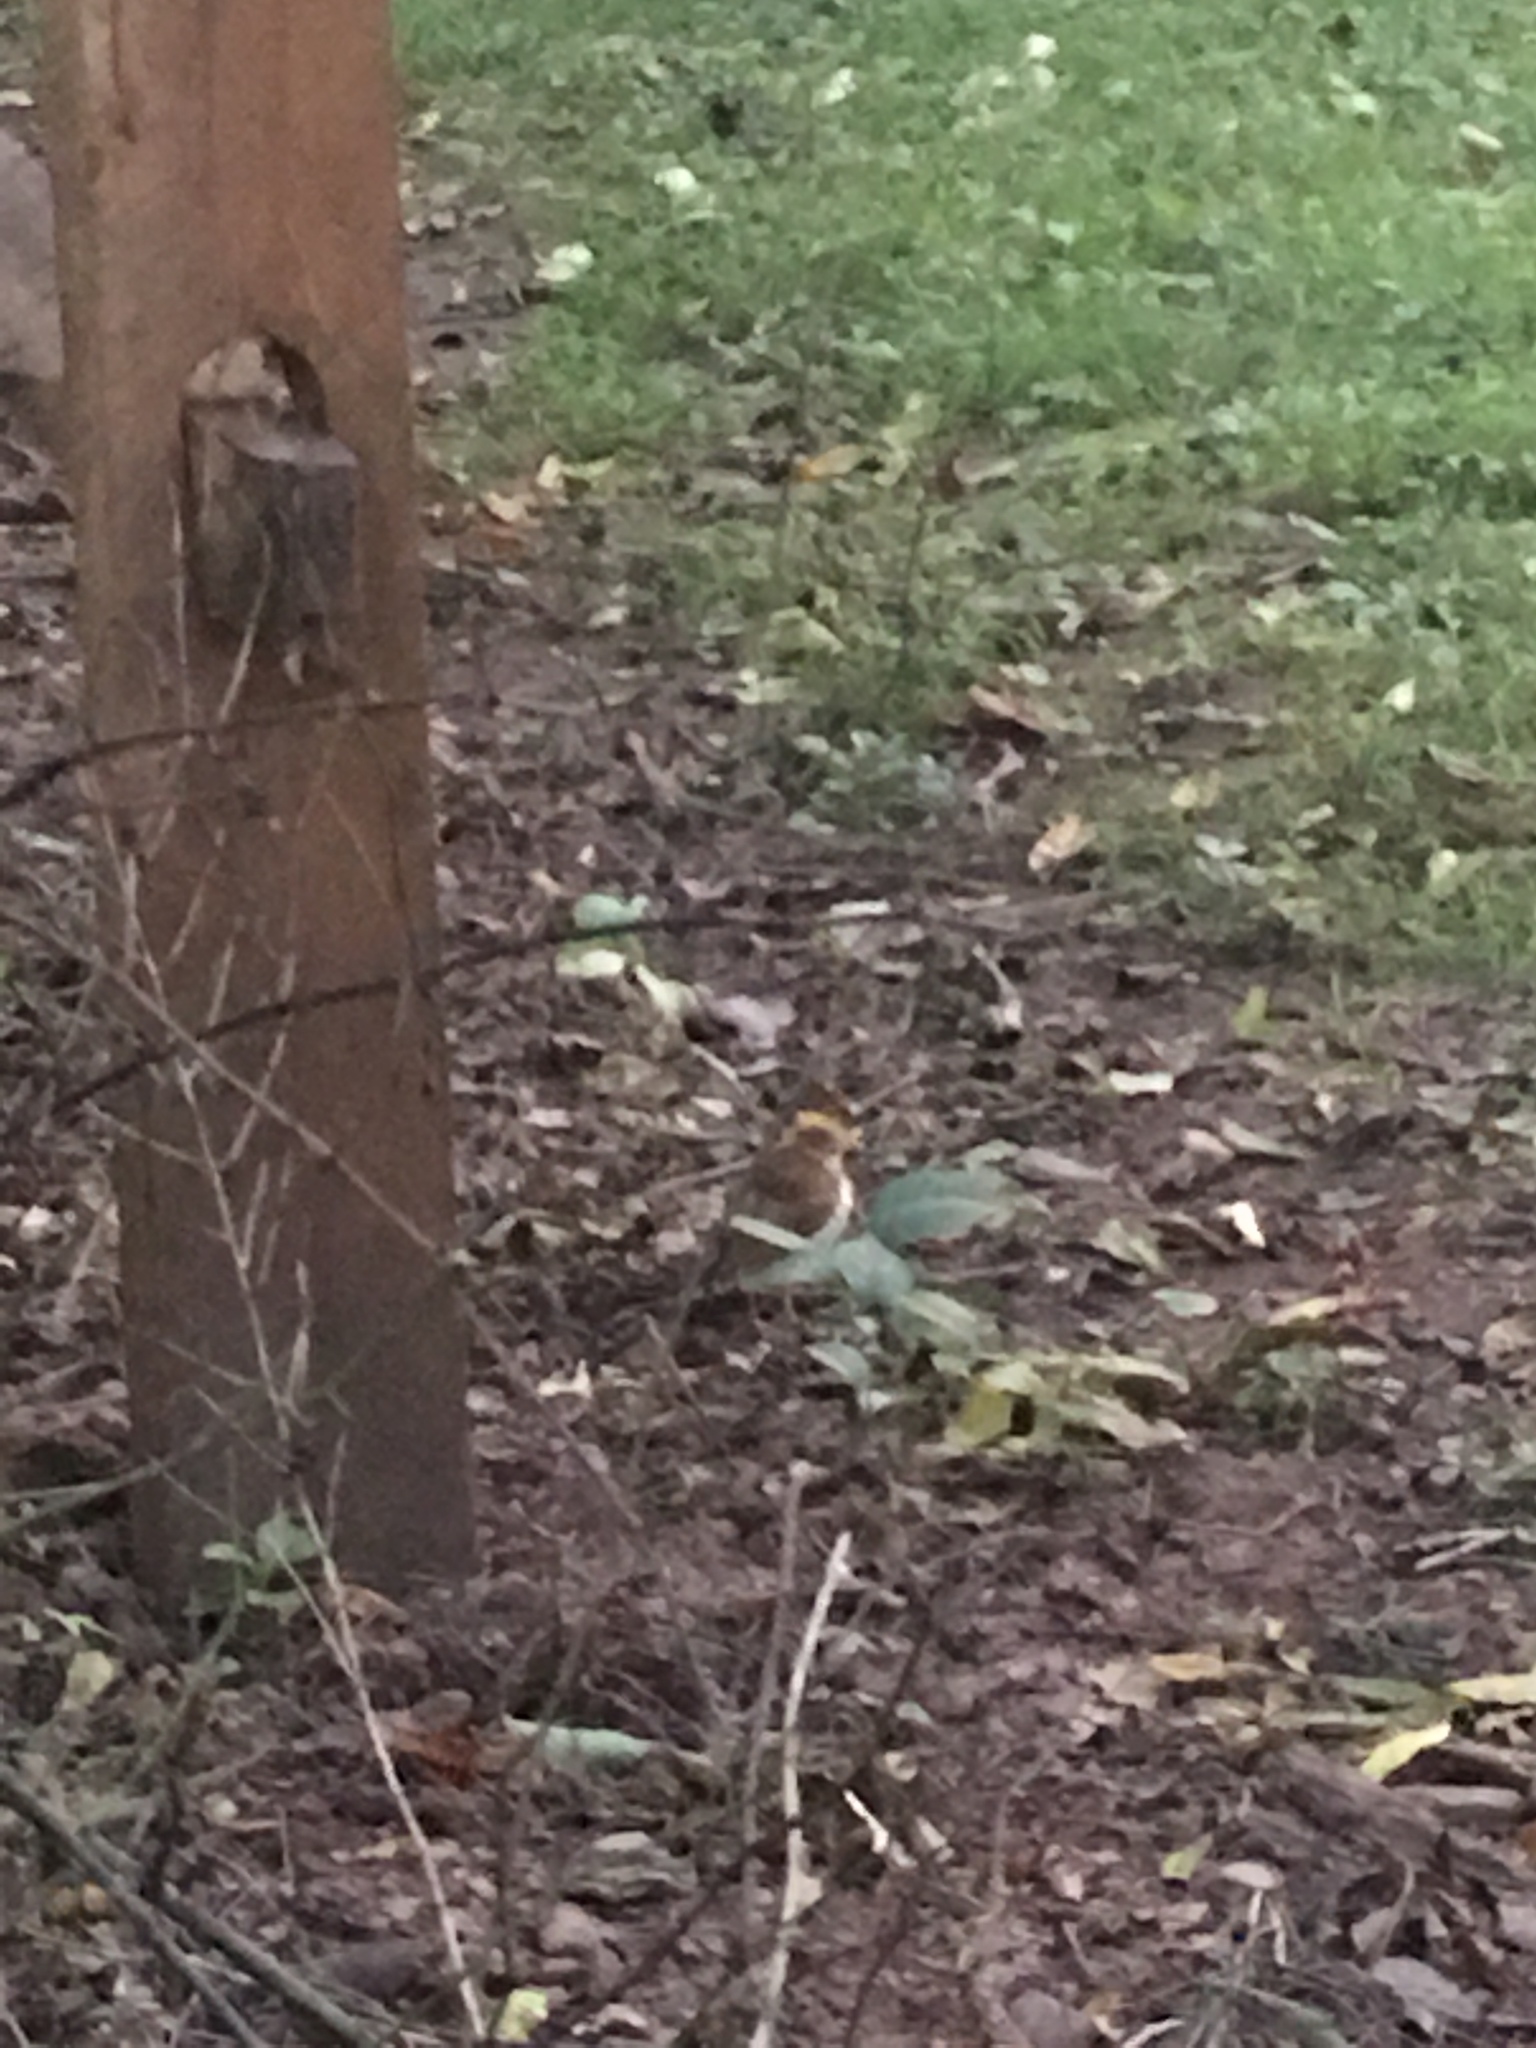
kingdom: Animalia
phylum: Chordata
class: Aves
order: Passeriformes
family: Turdidae
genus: Catharus
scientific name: Catharus fuscescens
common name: Veery
